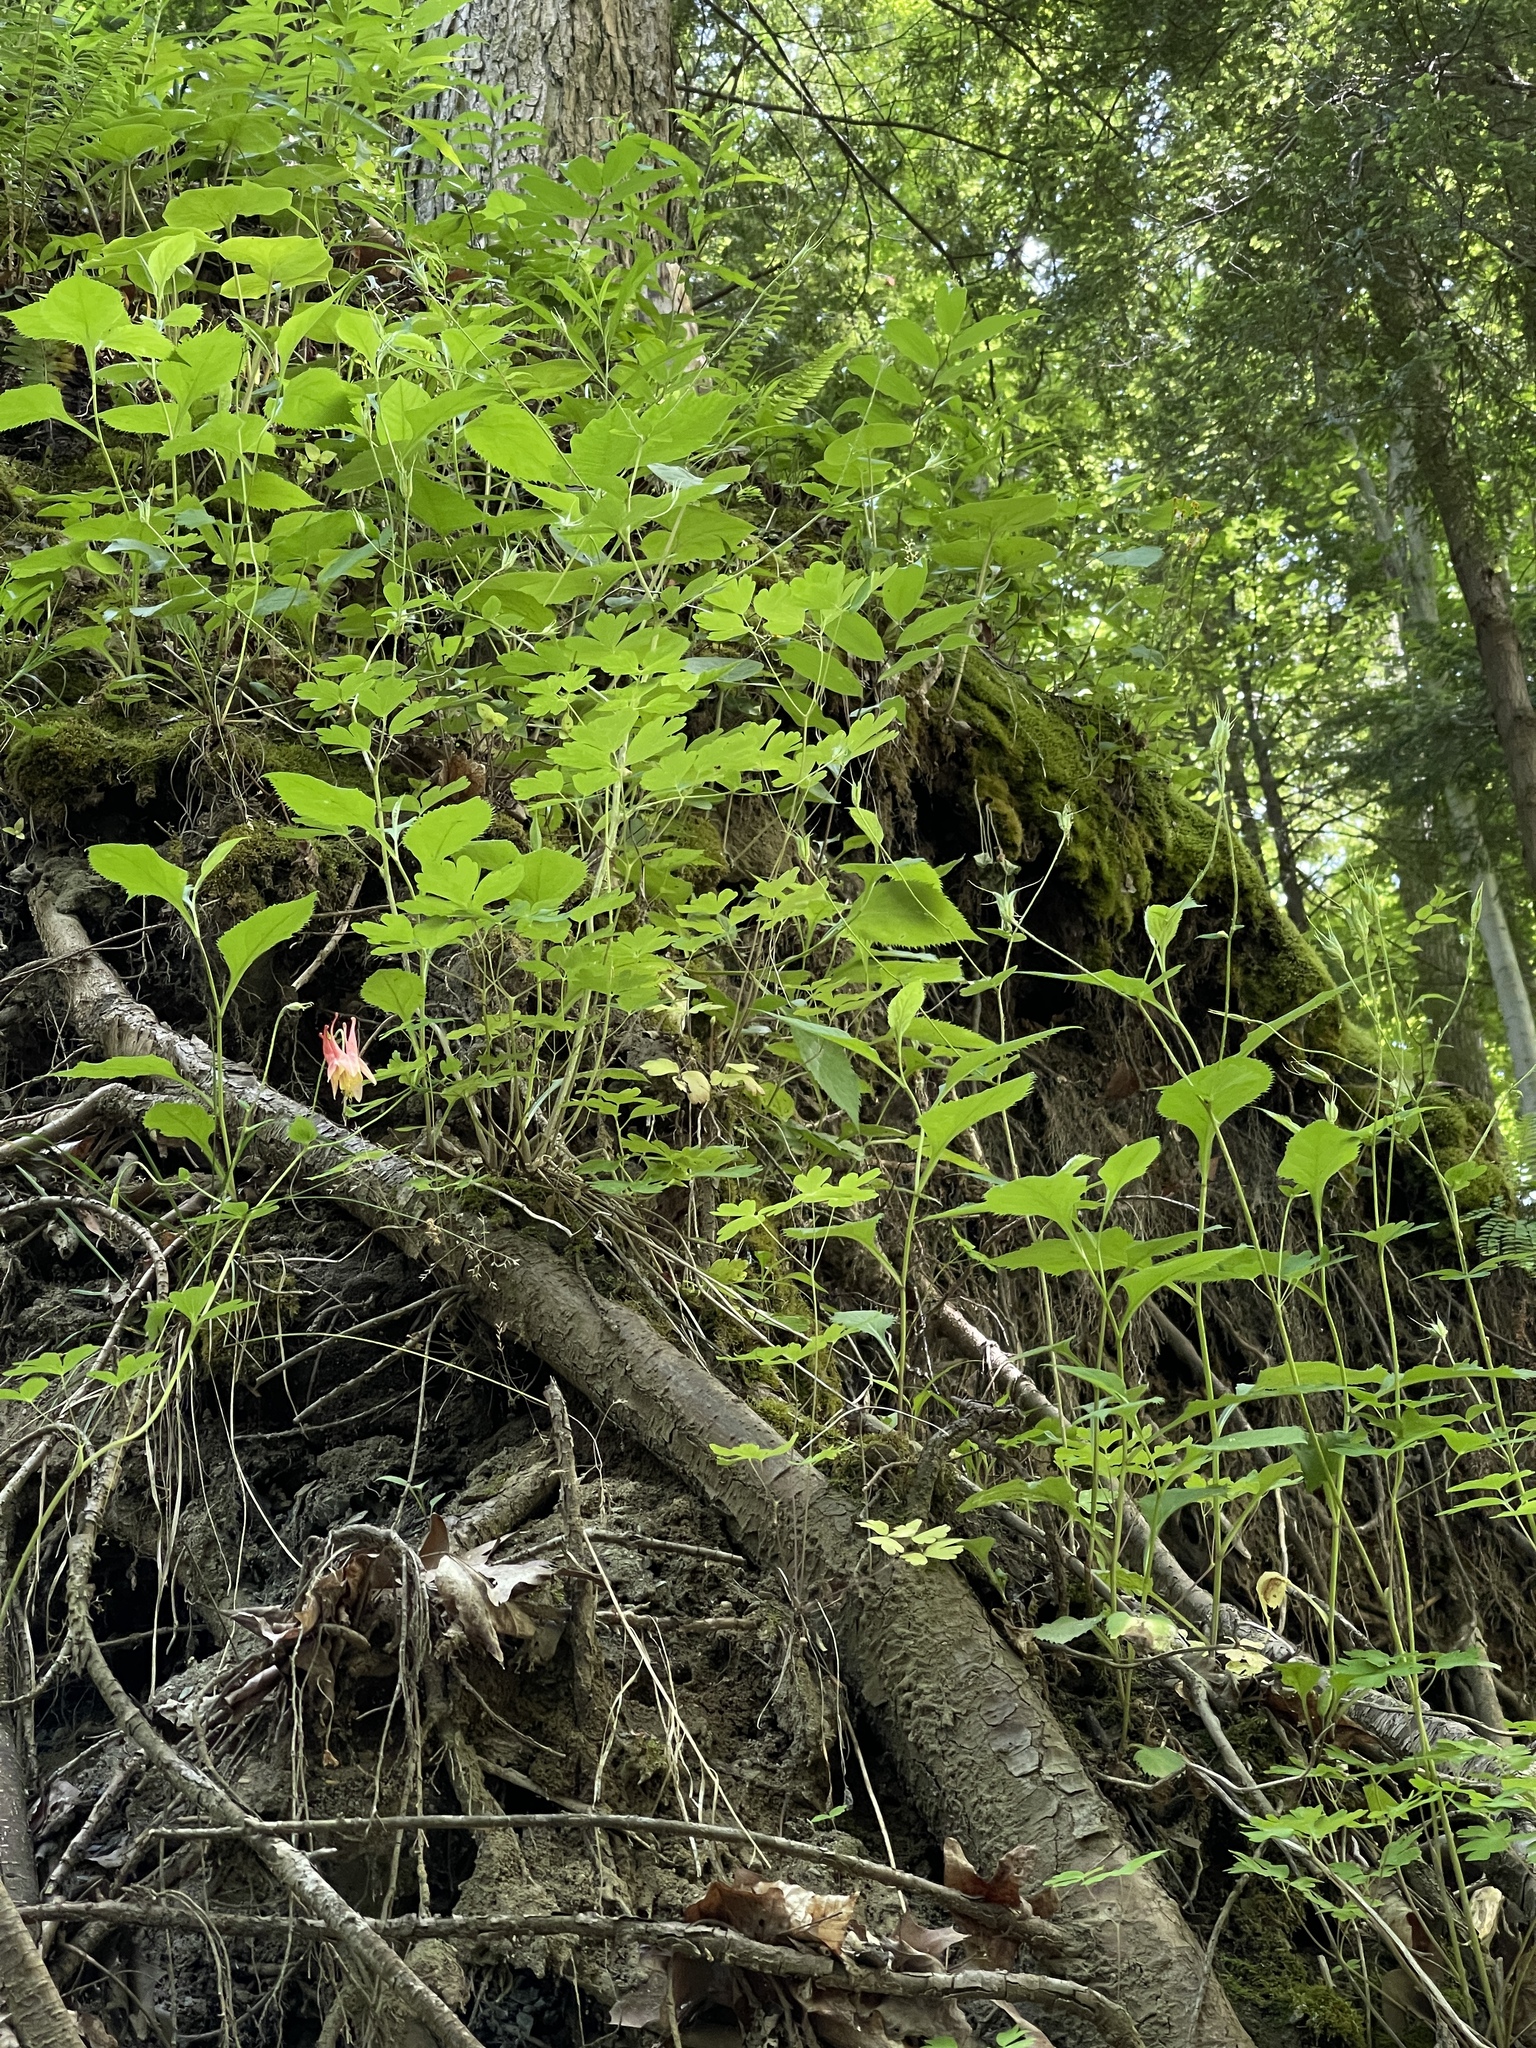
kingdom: Plantae
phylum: Tracheophyta
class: Magnoliopsida
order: Ranunculales
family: Ranunculaceae
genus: Aquilegia
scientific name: Aquilegia canadensis
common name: American columbine
